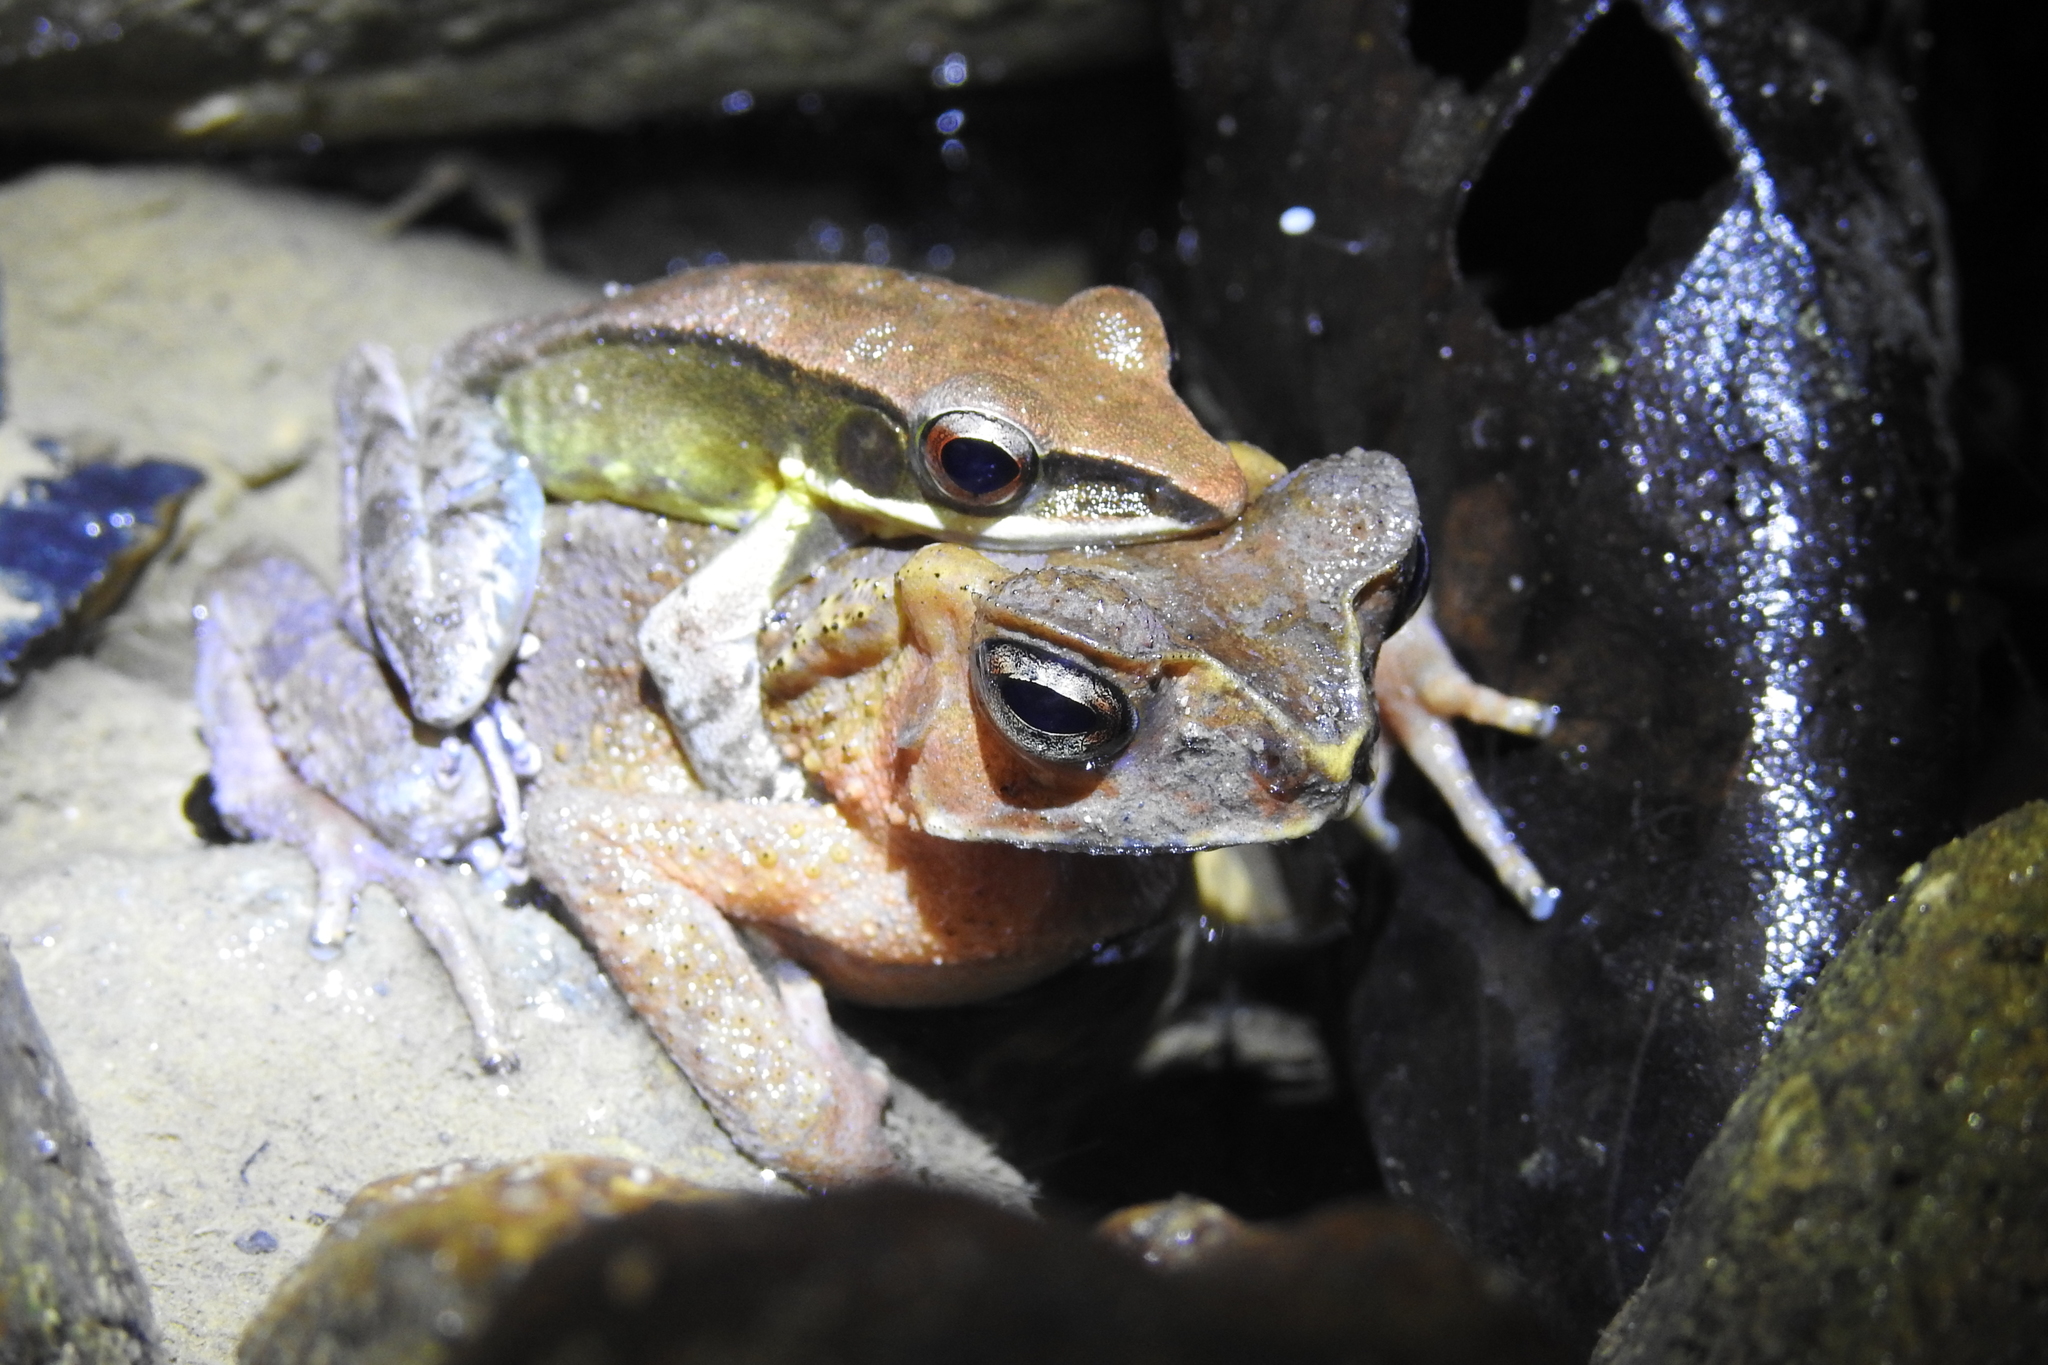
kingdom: Animalia
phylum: Chordata
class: Amphibia
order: Anura
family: Ranidae
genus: Hylarana
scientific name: Hylarana celebensis
